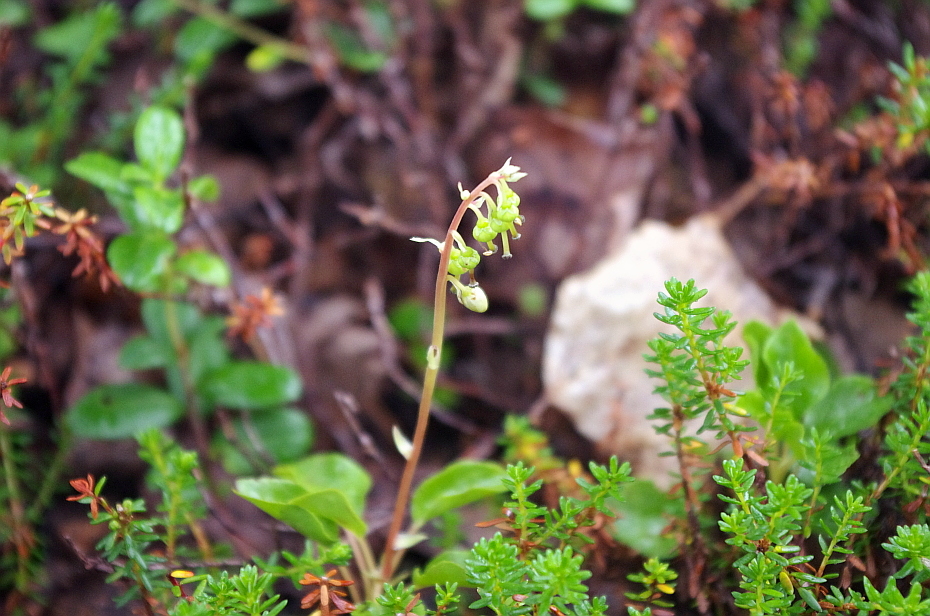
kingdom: Plantae
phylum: Tracheophyta
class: Magnoliopsida
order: Ericales
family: Ericaceae
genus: Orthilia
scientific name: Orthilia secunda
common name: One-sided orthilia
